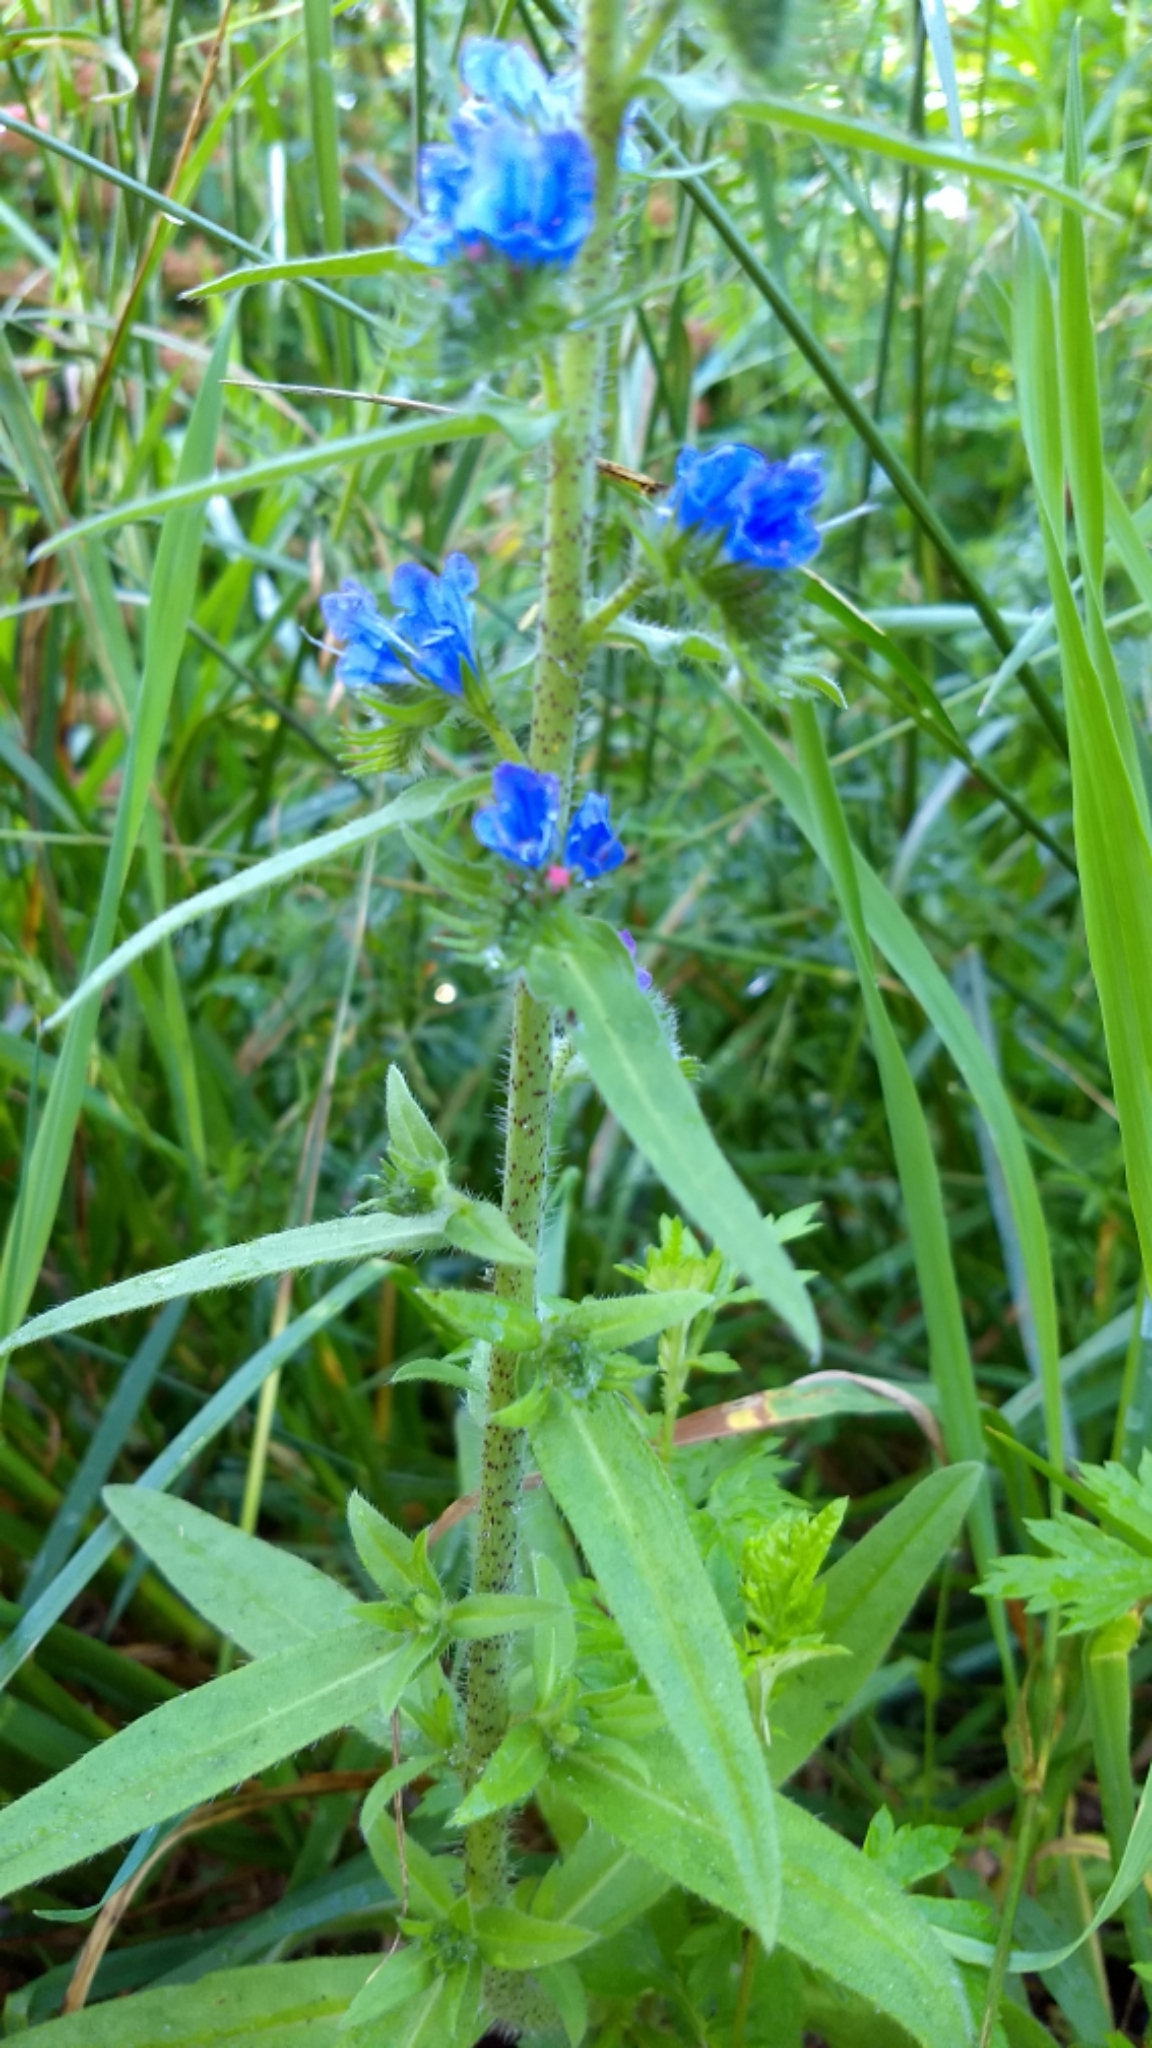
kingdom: Plantae
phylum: Tracheophyta
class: Magnoliopsida
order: Boraginales
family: Boraginaceae
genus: Echium
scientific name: Echium vulgare
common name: Common viper's bugloss
